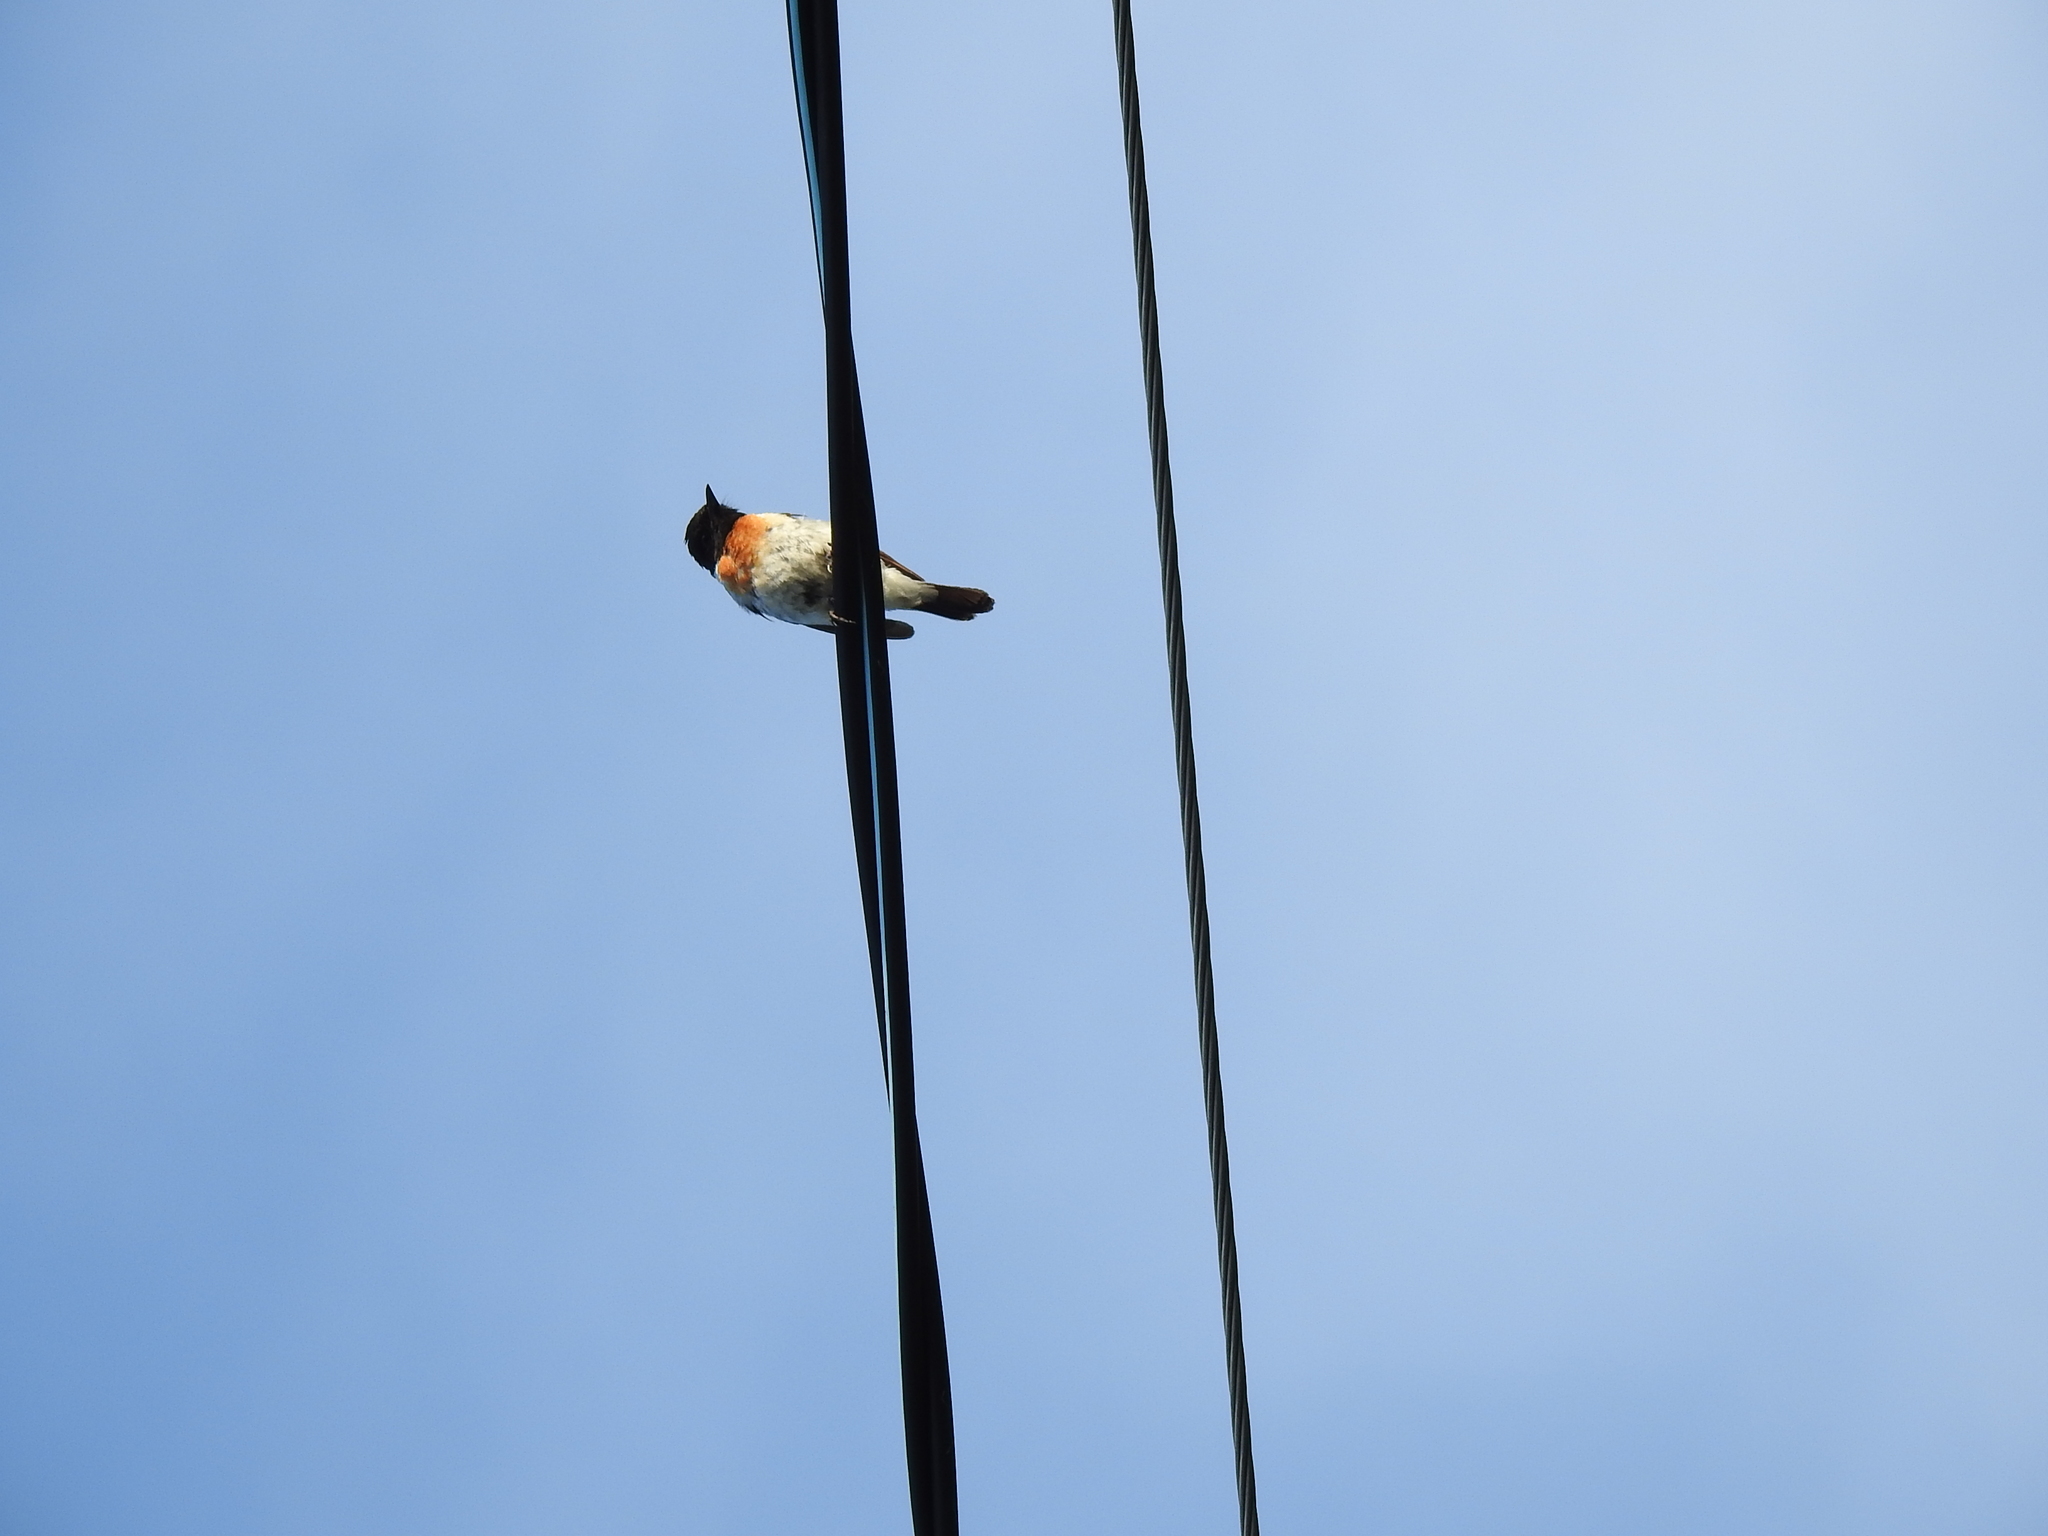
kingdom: Animalia
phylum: Chordata
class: Aves
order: Passeriformes
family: Muscicapidae
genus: Saxicola
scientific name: Saxicola maurus
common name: Siberian stonechat
